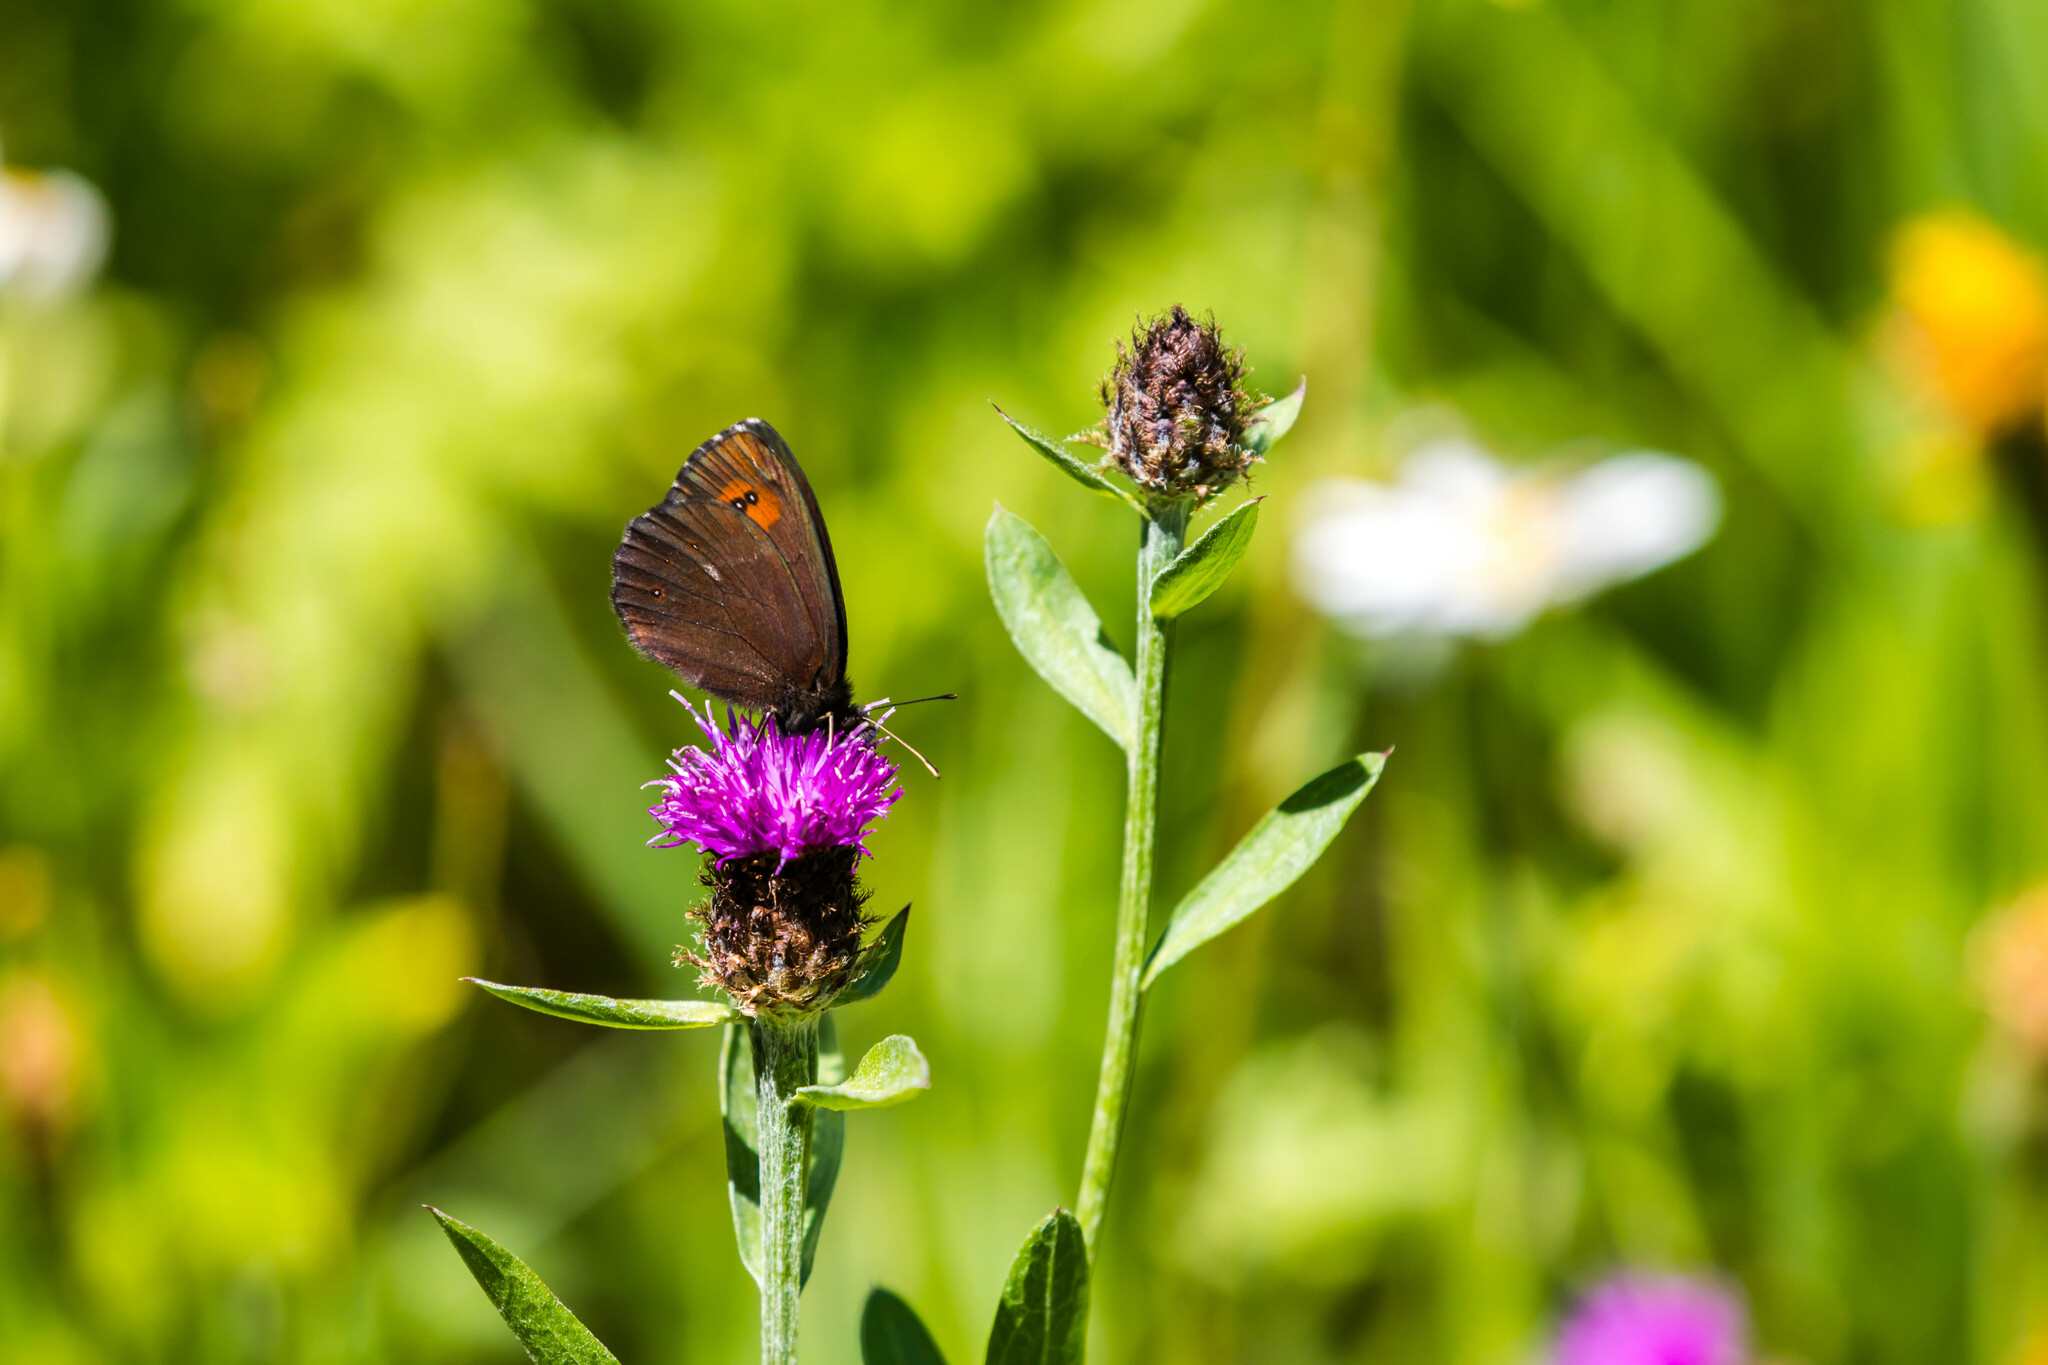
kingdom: Animalia
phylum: Arthropoda
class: Insecta
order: Lepidoptera
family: Nymphalidae
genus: Erebia
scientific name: Erebia euryale
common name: Large ringlet
